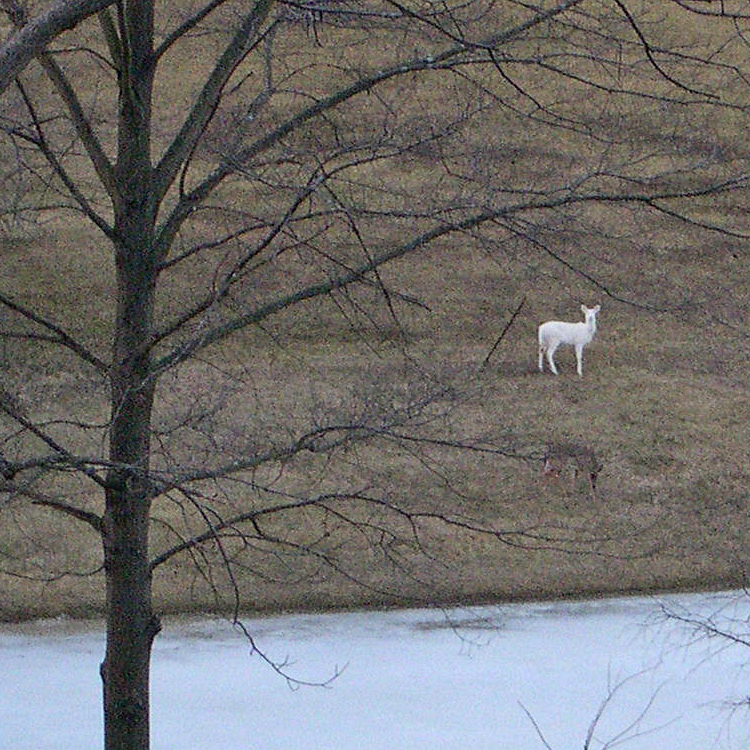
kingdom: Animalia
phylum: Chordata
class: Mammalia
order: Artiodactyla
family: Cervidae
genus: Odocoileus
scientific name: Odocoileus virginianus
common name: White-tailed deer
